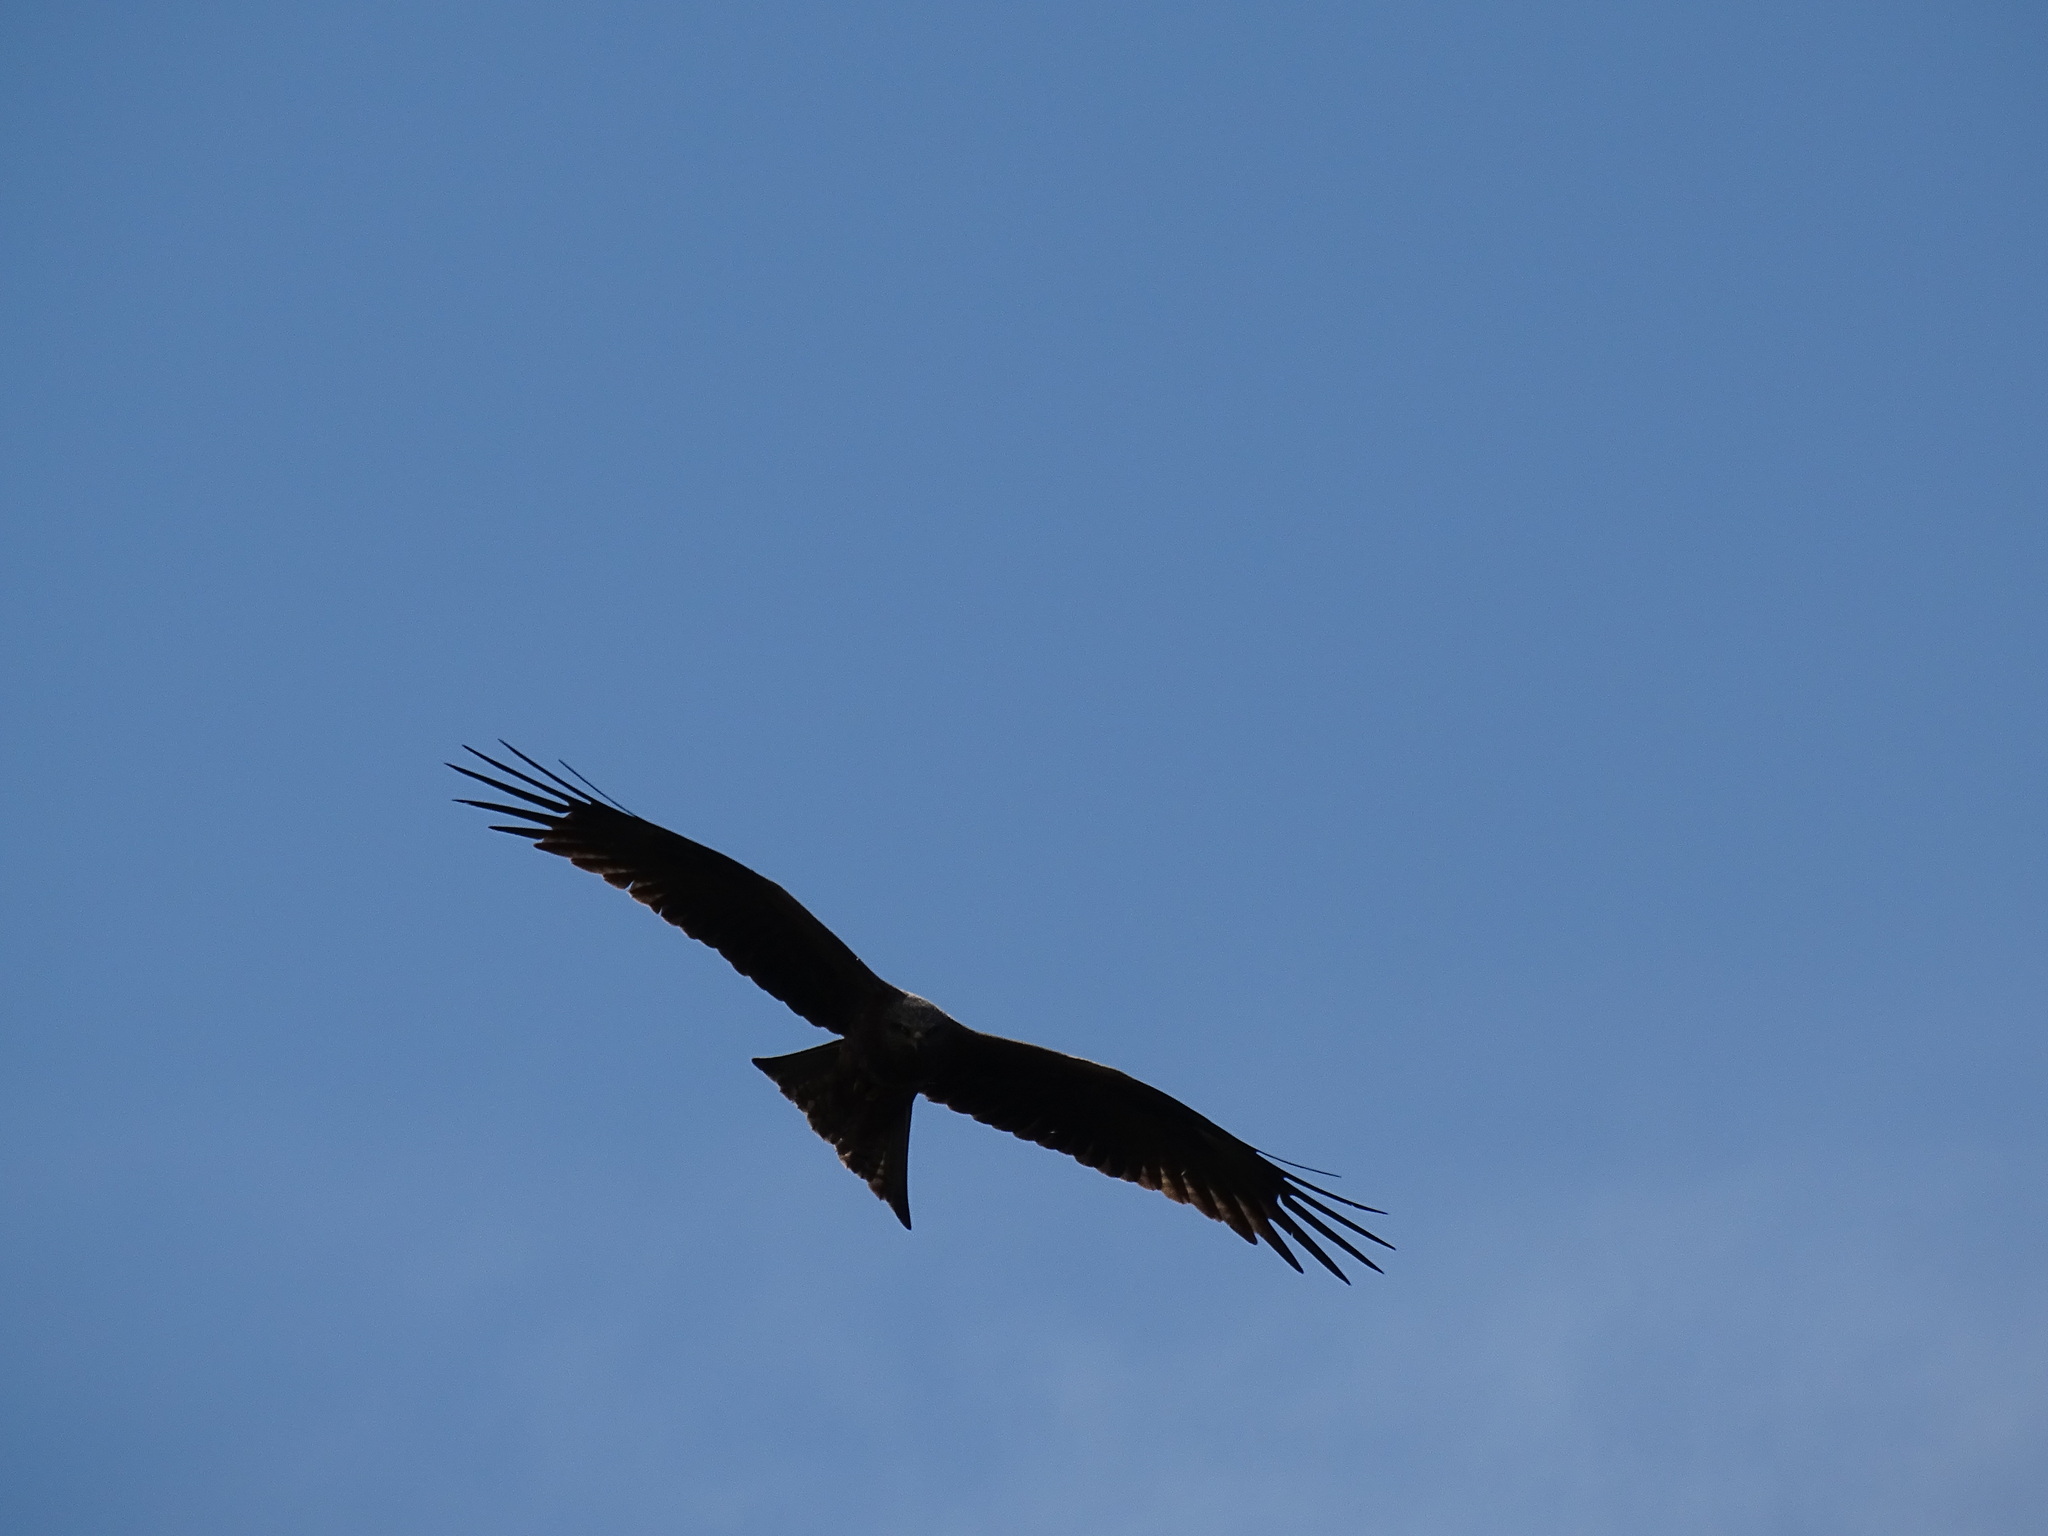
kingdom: Animalia
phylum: Chordata
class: Aves
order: Accipitriformes
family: Accipitridae
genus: Milvus
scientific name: Milvus migrans
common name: Black kite
